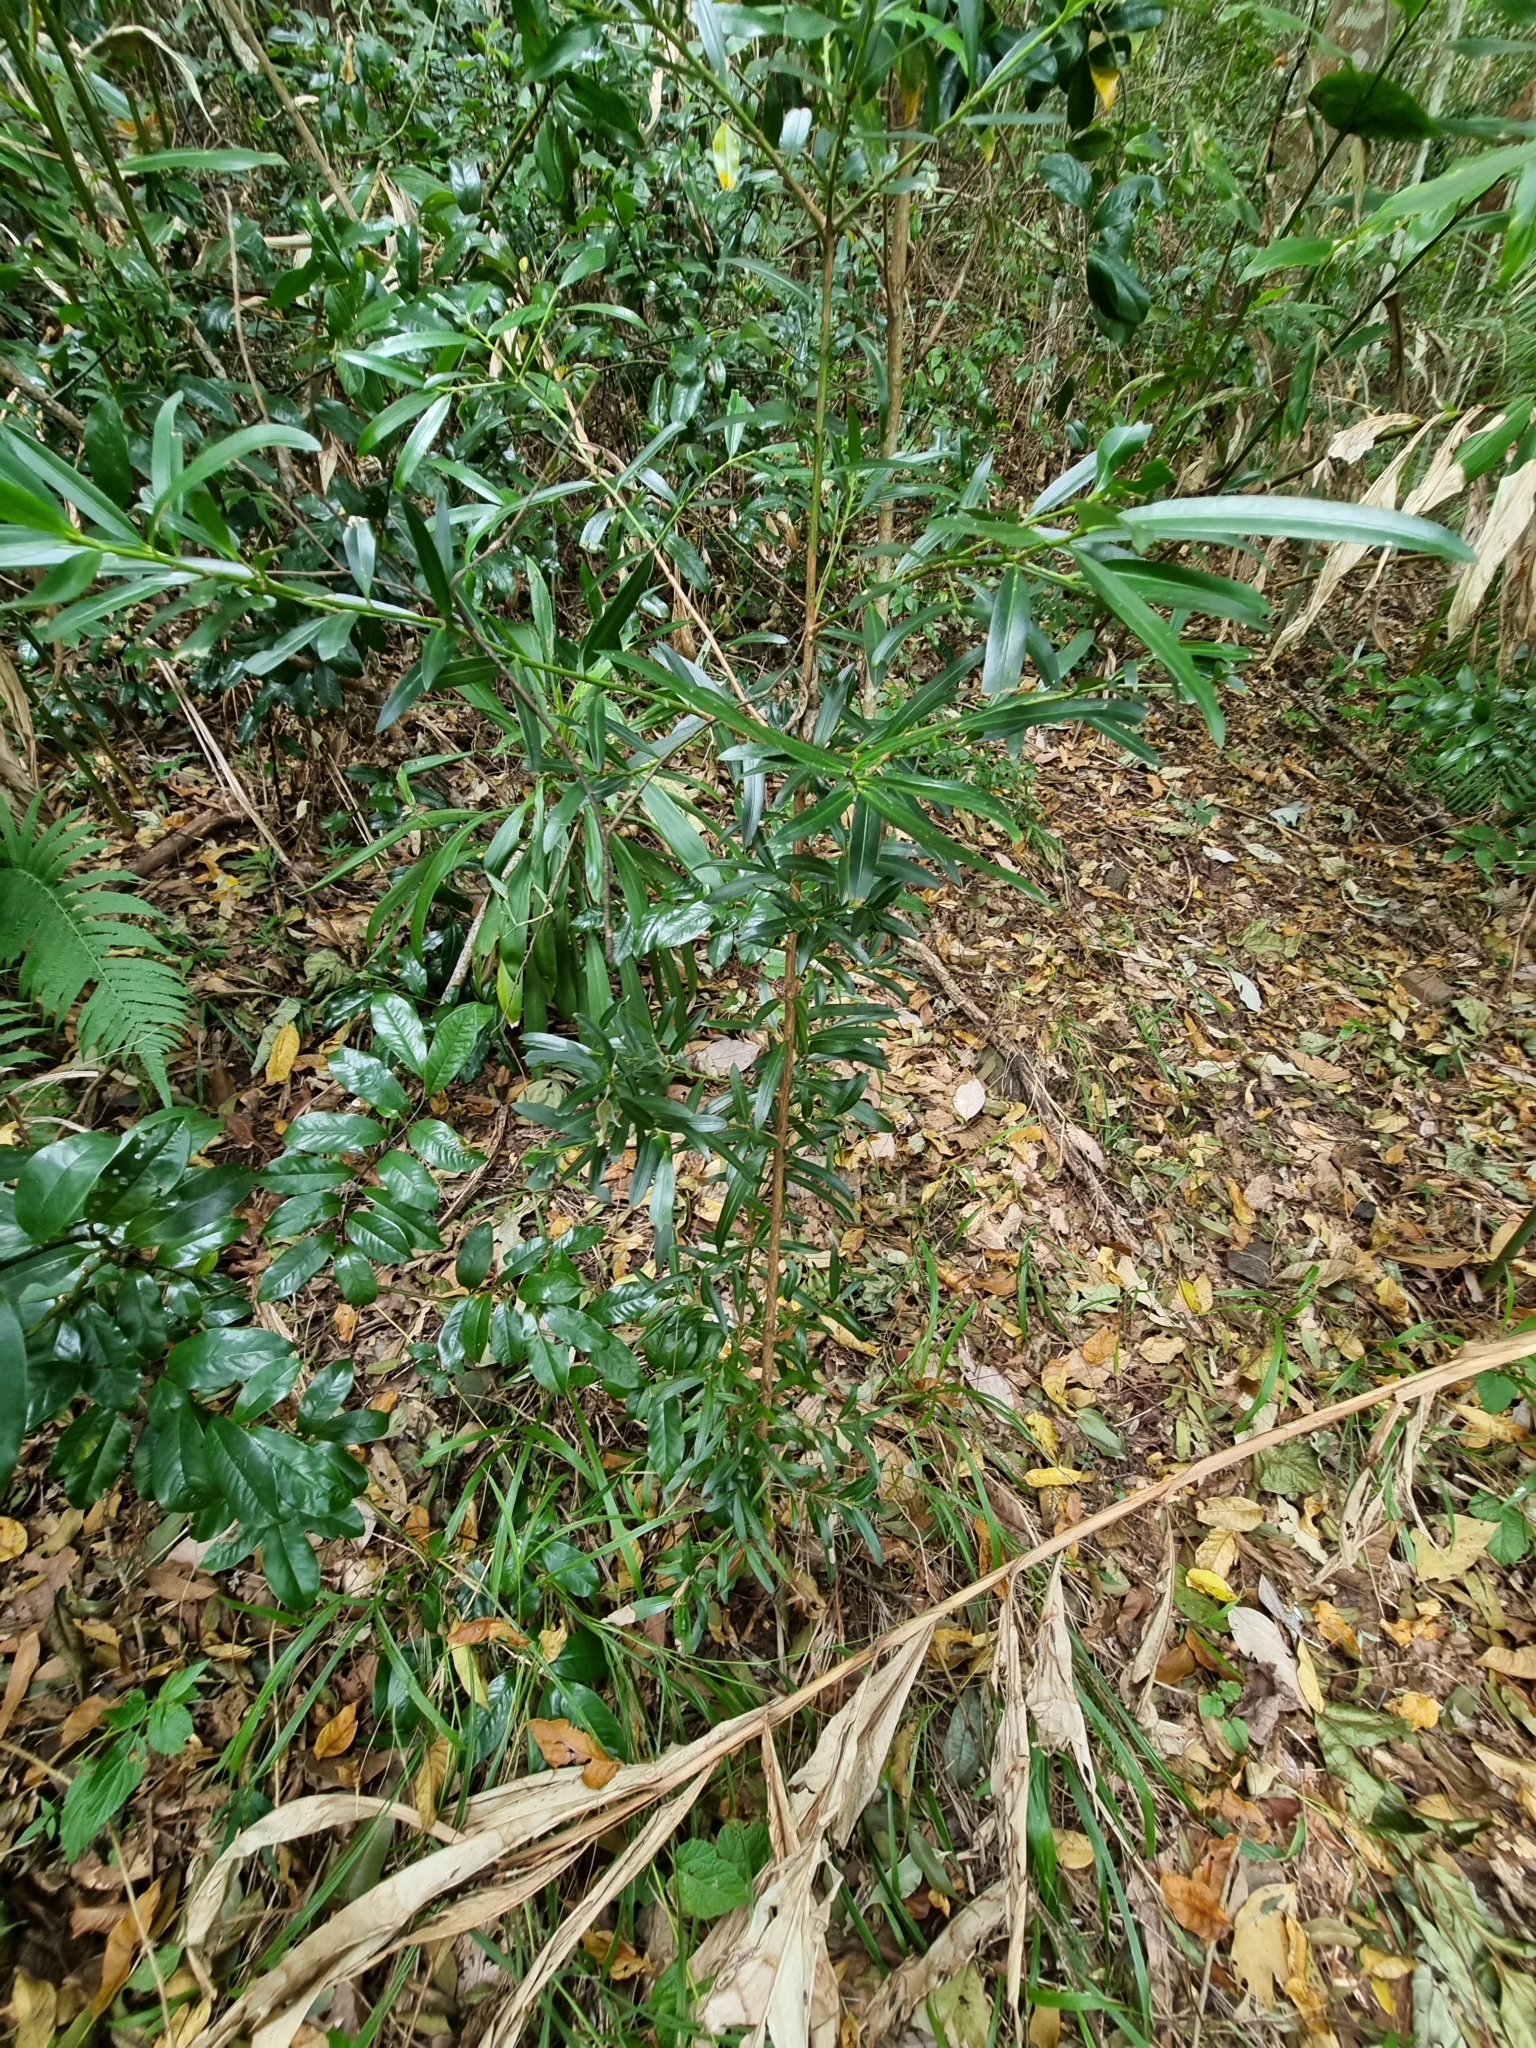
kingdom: Plantae
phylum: Tracheophyta
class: Pinopsida
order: Pinales
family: Podocarpaceae
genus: Podocarpus
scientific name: Podocarpus elatus
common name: Plum pine
